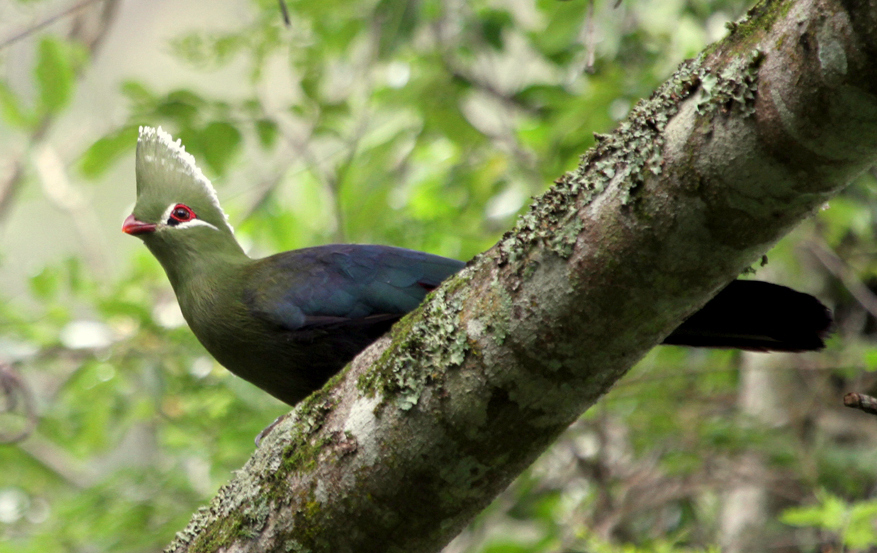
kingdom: Animalia
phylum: Chordata
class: Aves
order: Musophagiformes
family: Musophagidae
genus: Tauraco
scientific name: Tauraco corythaix
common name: Knysna turaco
